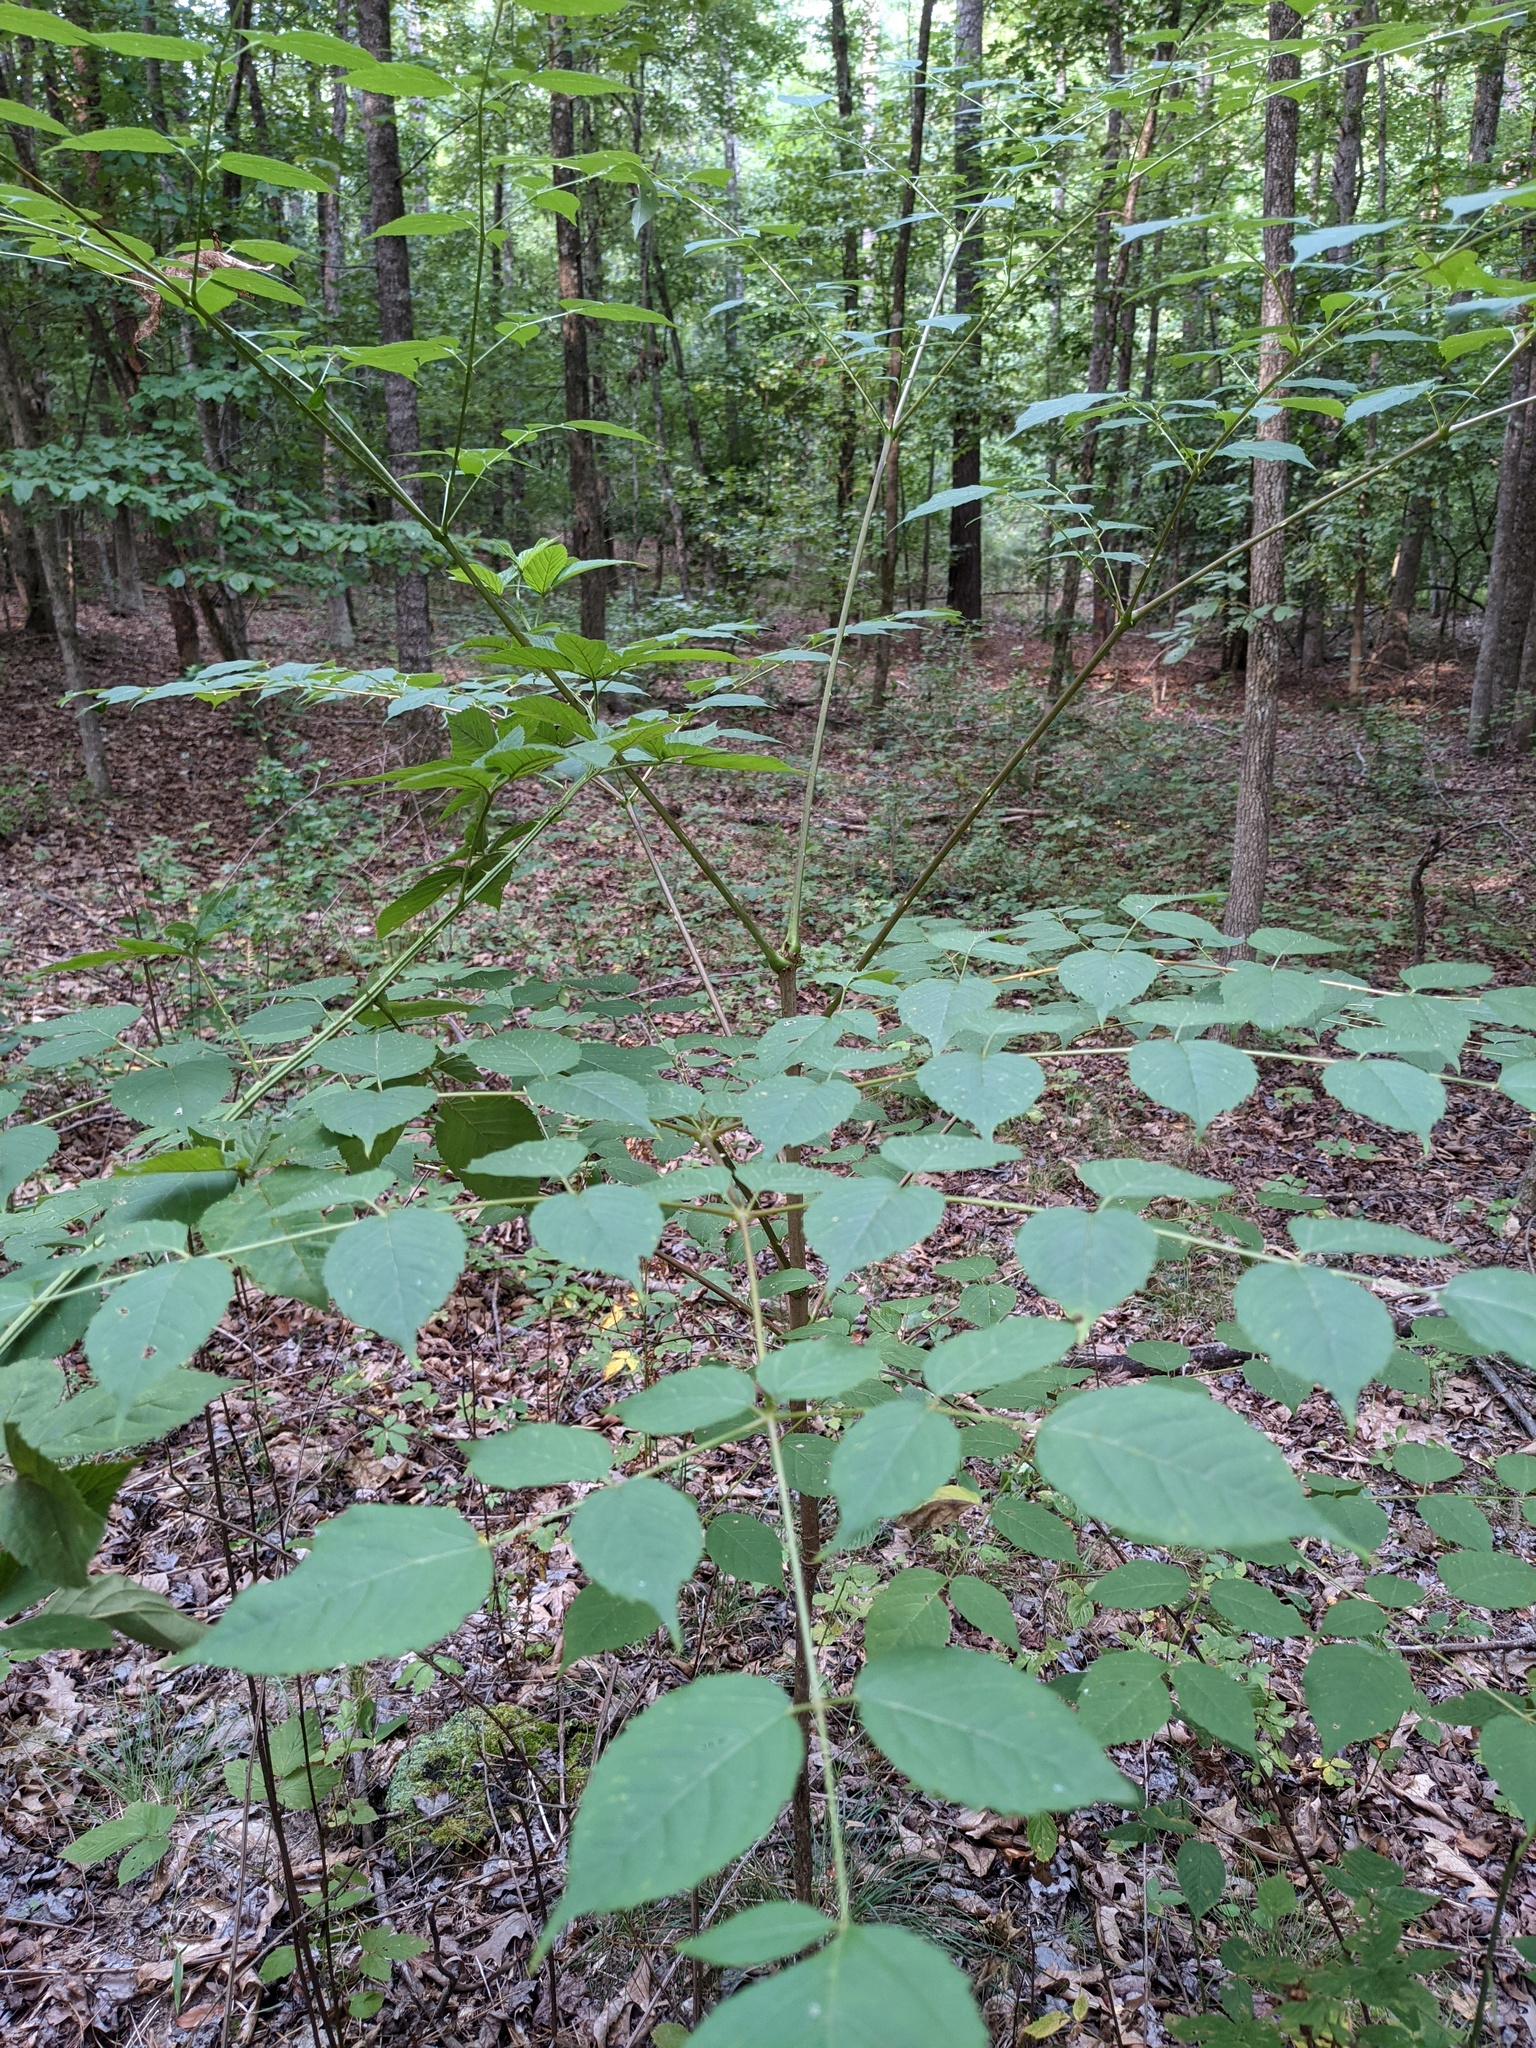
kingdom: Plantae
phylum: Tracheophyta
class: Magnoliopsida
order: Apiales
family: Araliaceae
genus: Aralia
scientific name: Aralia spinosa
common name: Hercules'-club
